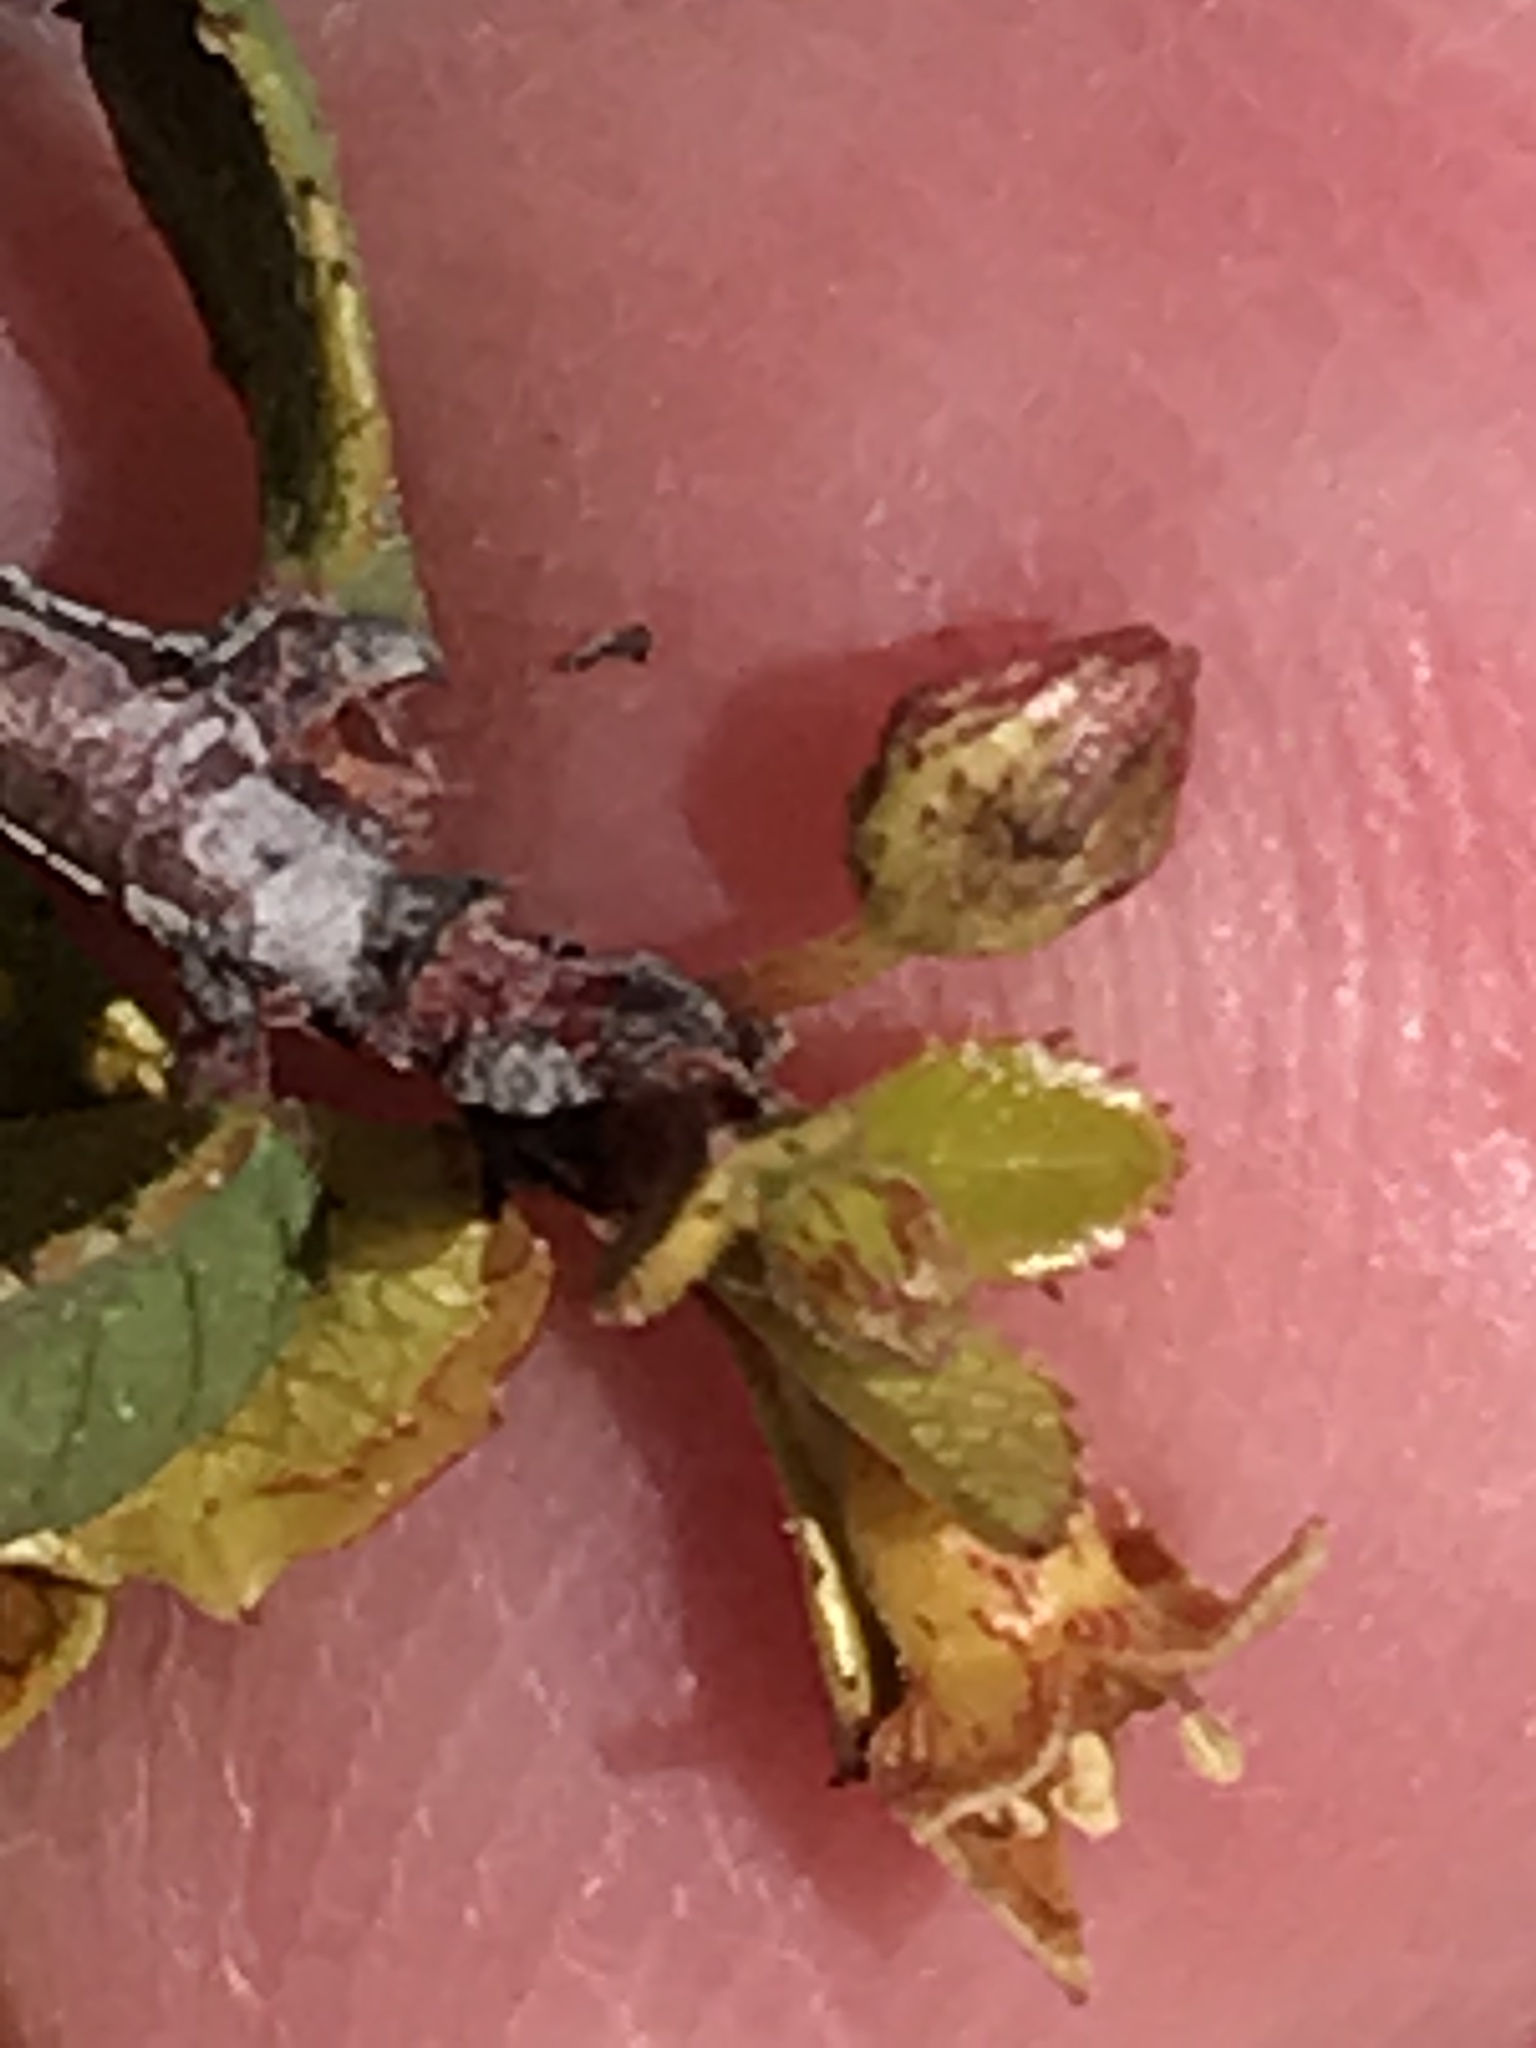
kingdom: Plantae
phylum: Tracheophyta
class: Magnoliopsida
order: Rosales
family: Rhamnaceae
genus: Endotropis
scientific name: Endotropis crocea
